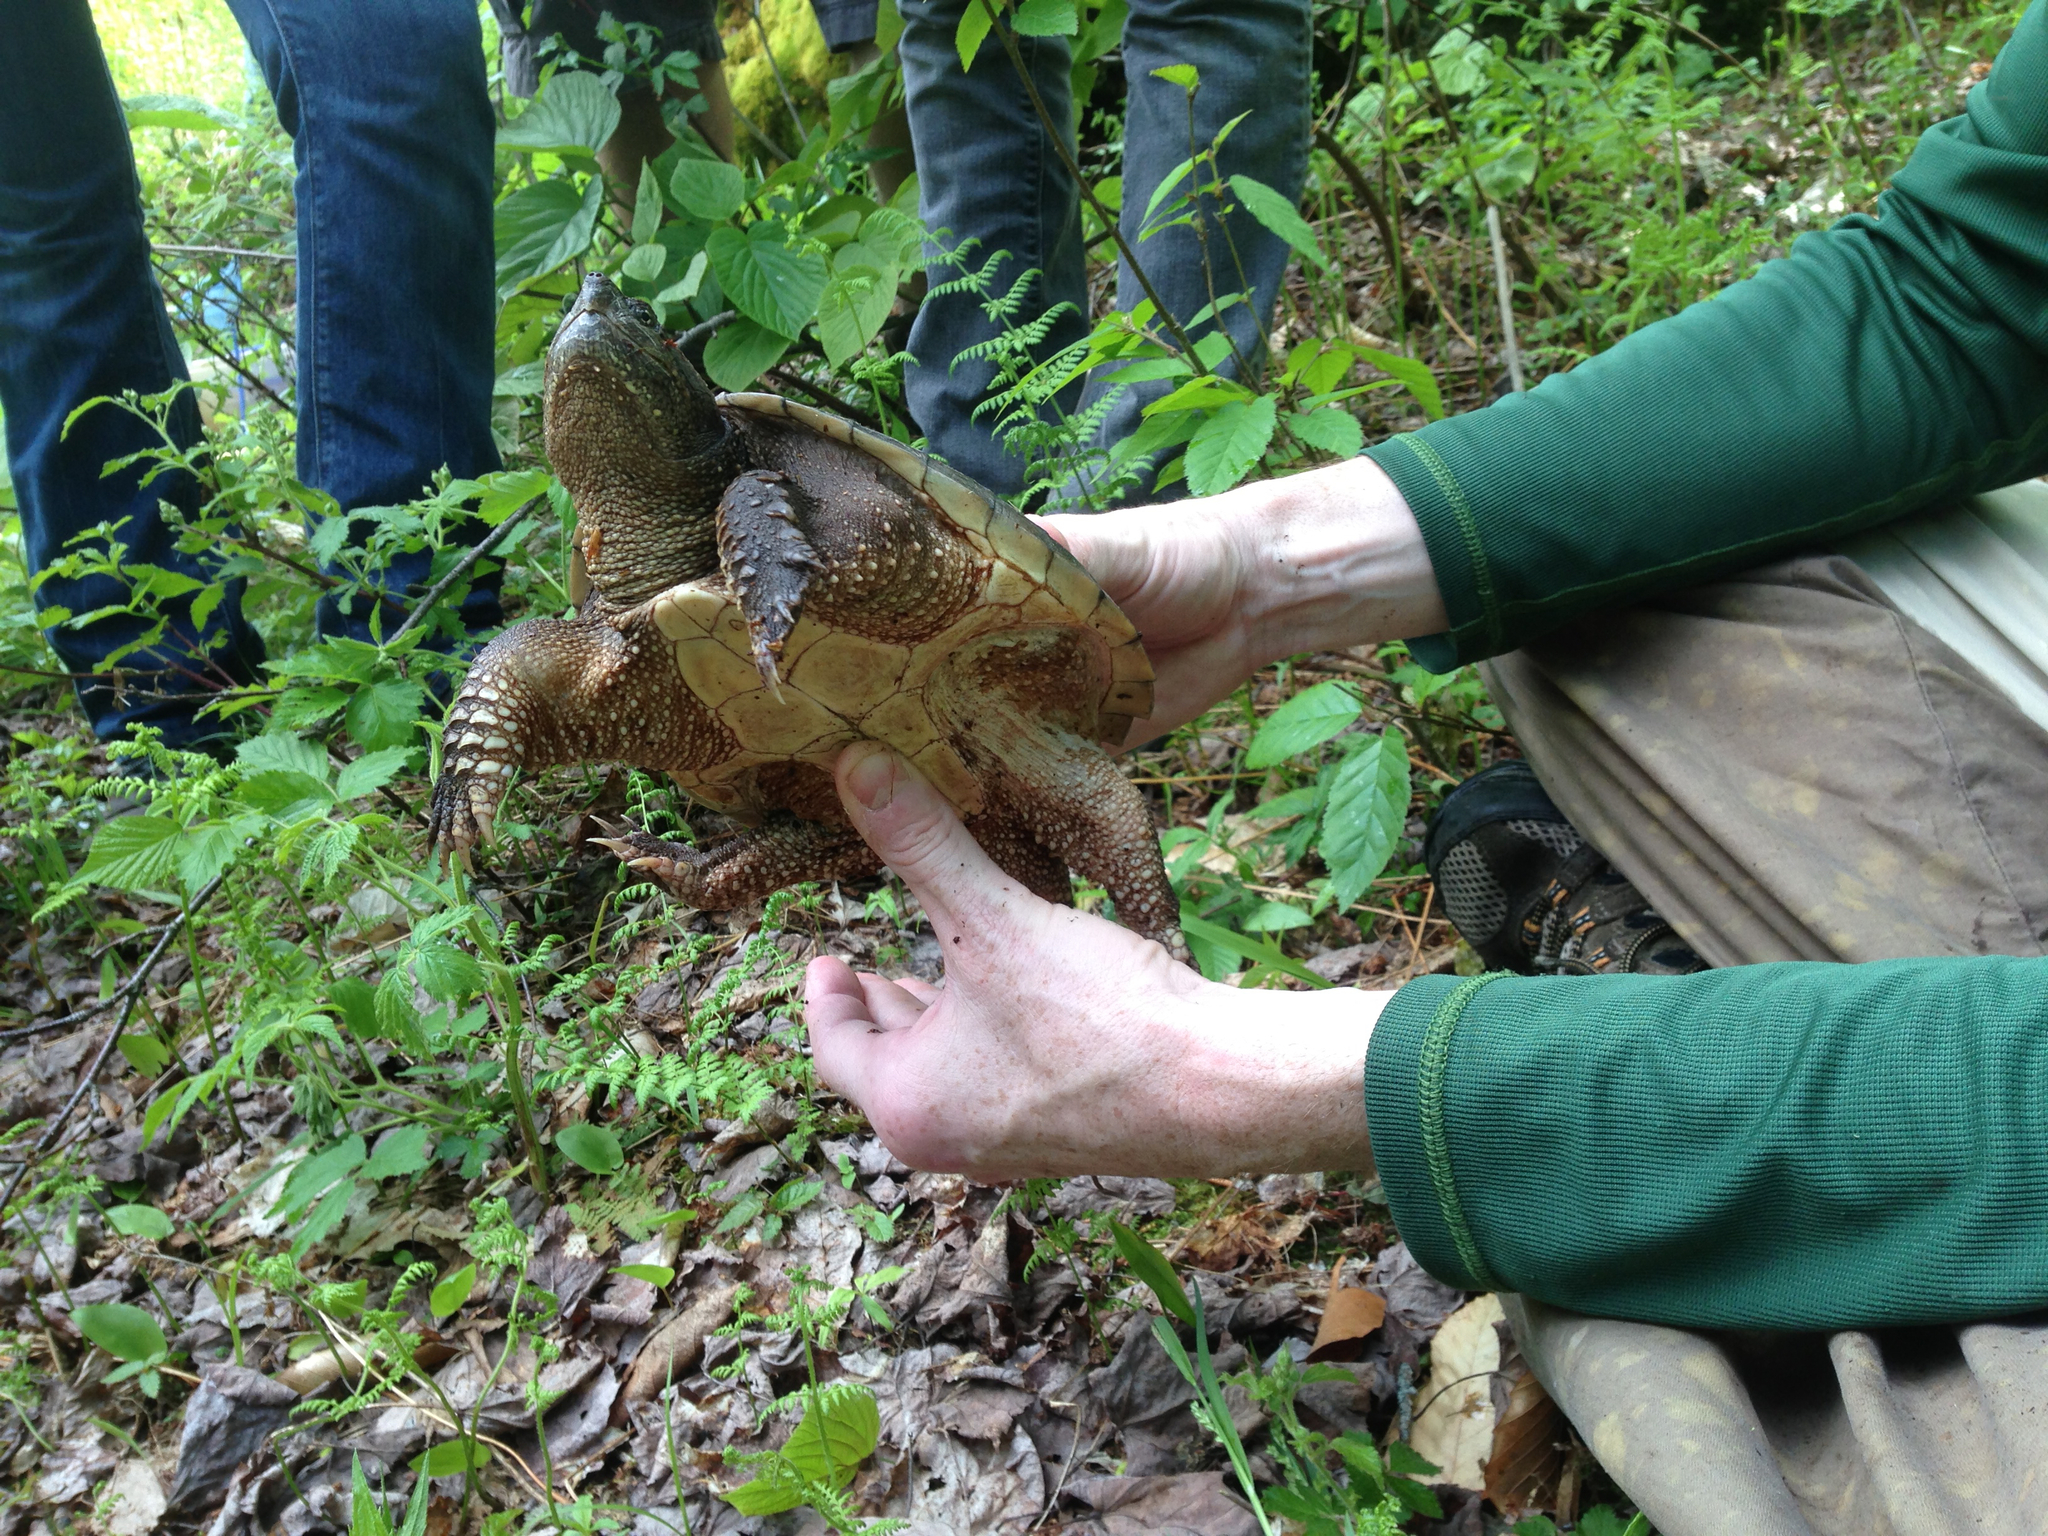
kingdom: Animalia
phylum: Chordata
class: Testudines
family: Chelydridae
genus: Chelydra
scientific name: Chelydra serpentina
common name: Common snapping turtle
